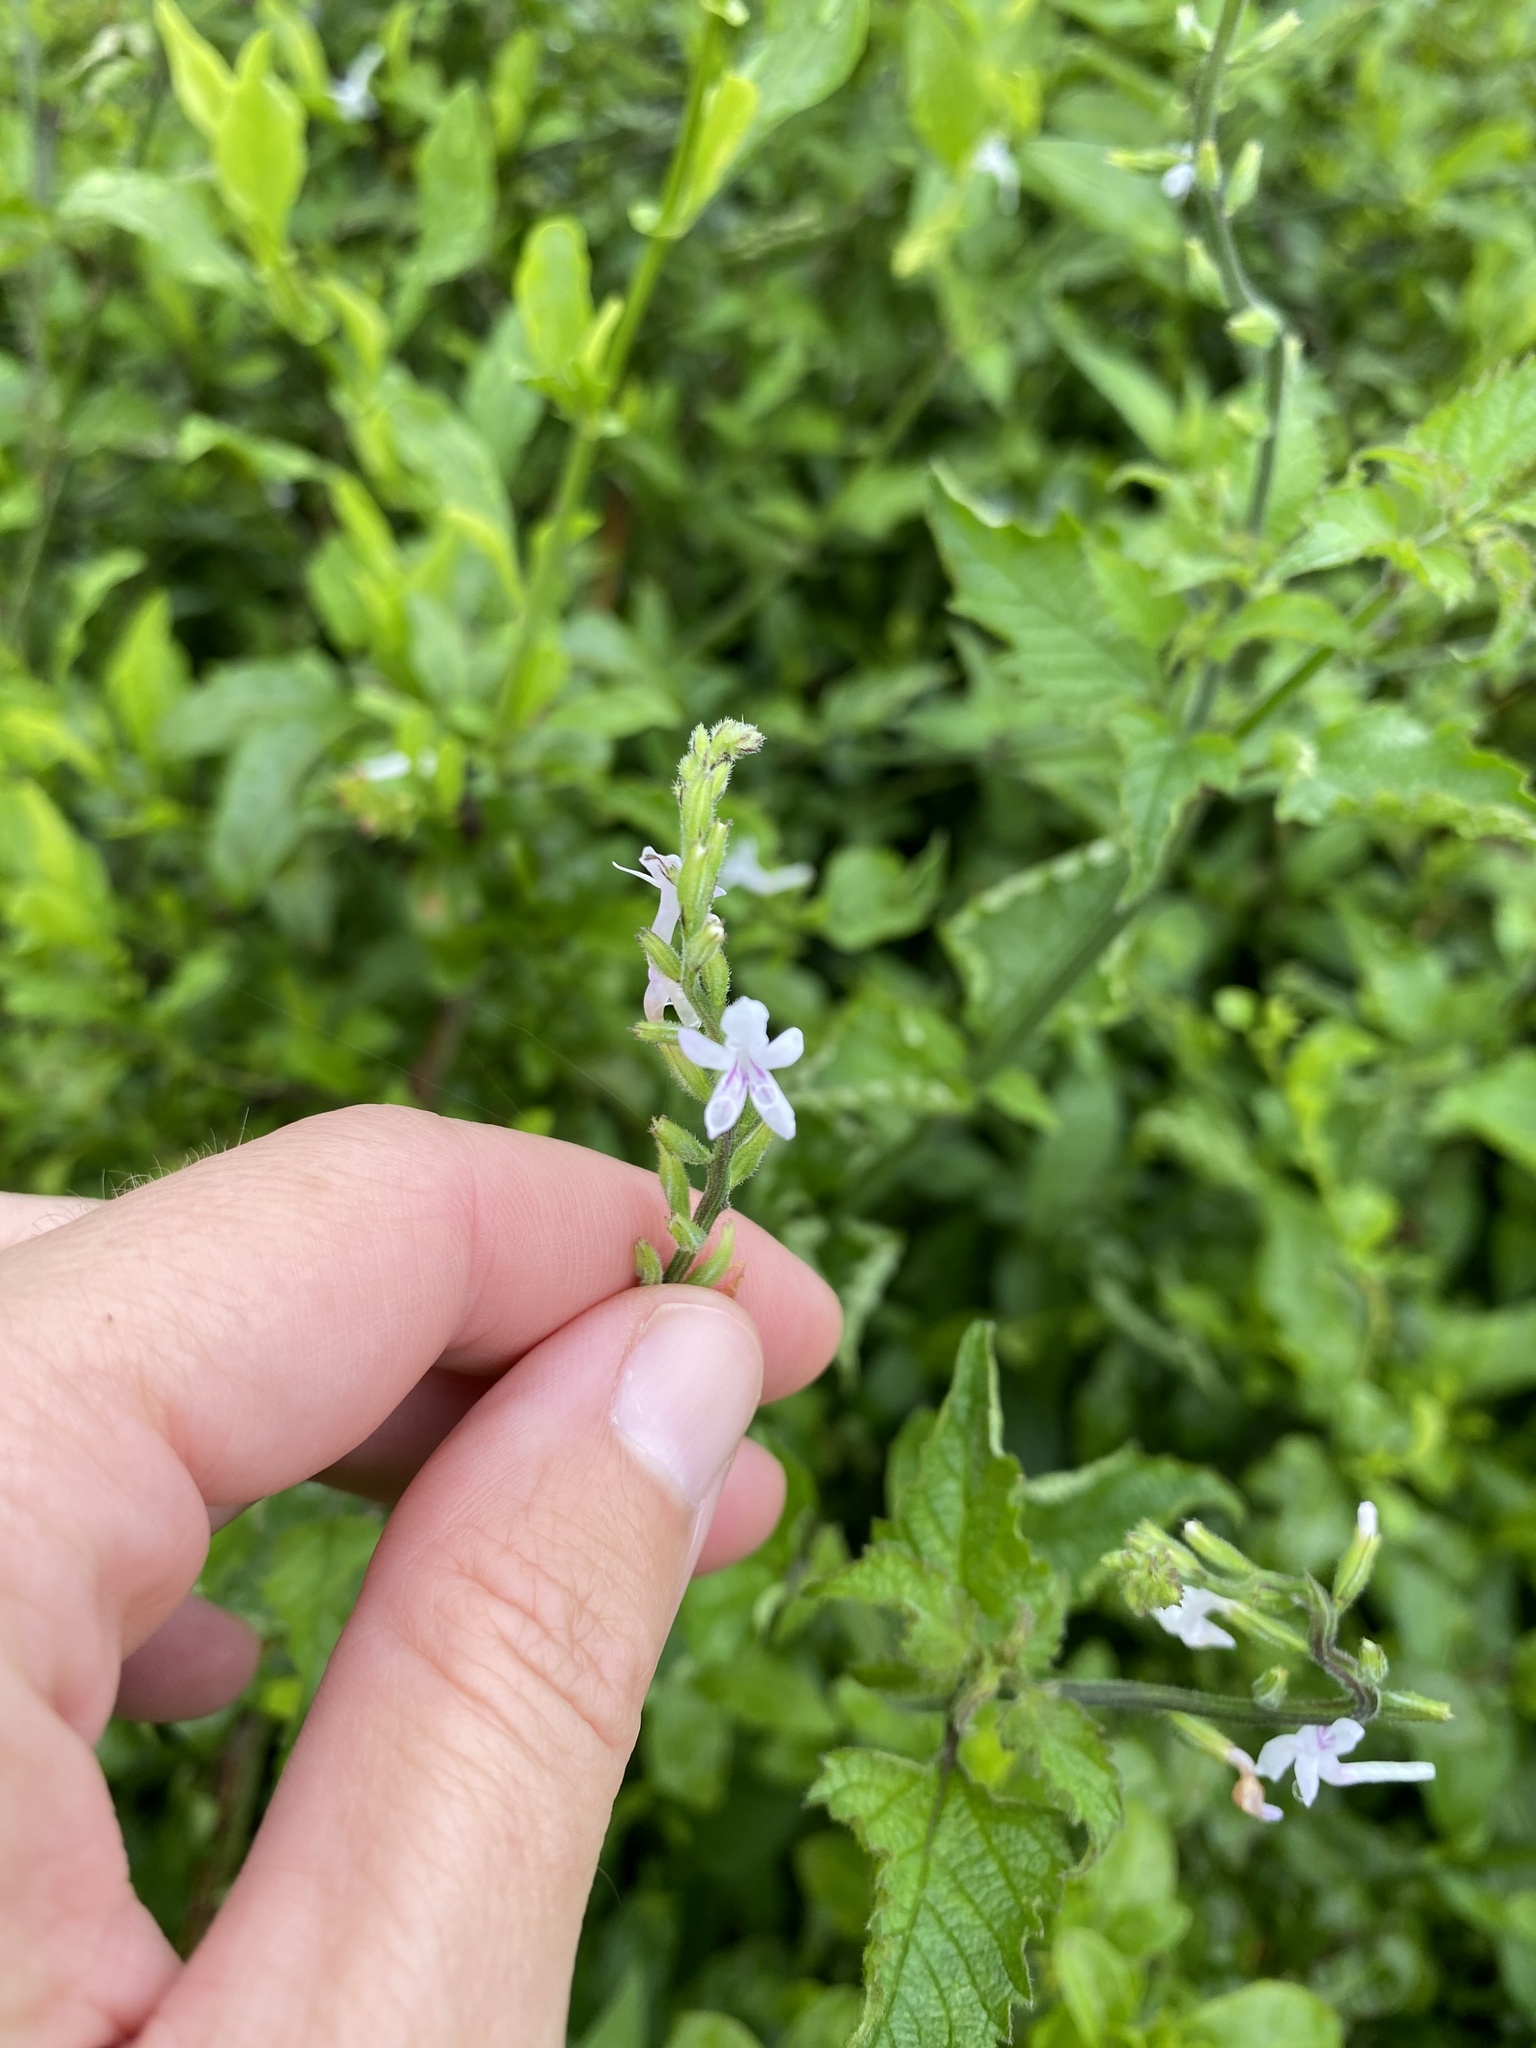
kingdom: Plantae
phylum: Tracheophyta
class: Magnoliopsida
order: Lamiales
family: Verbenaceae
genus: Priva
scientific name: Priva cordifolia
